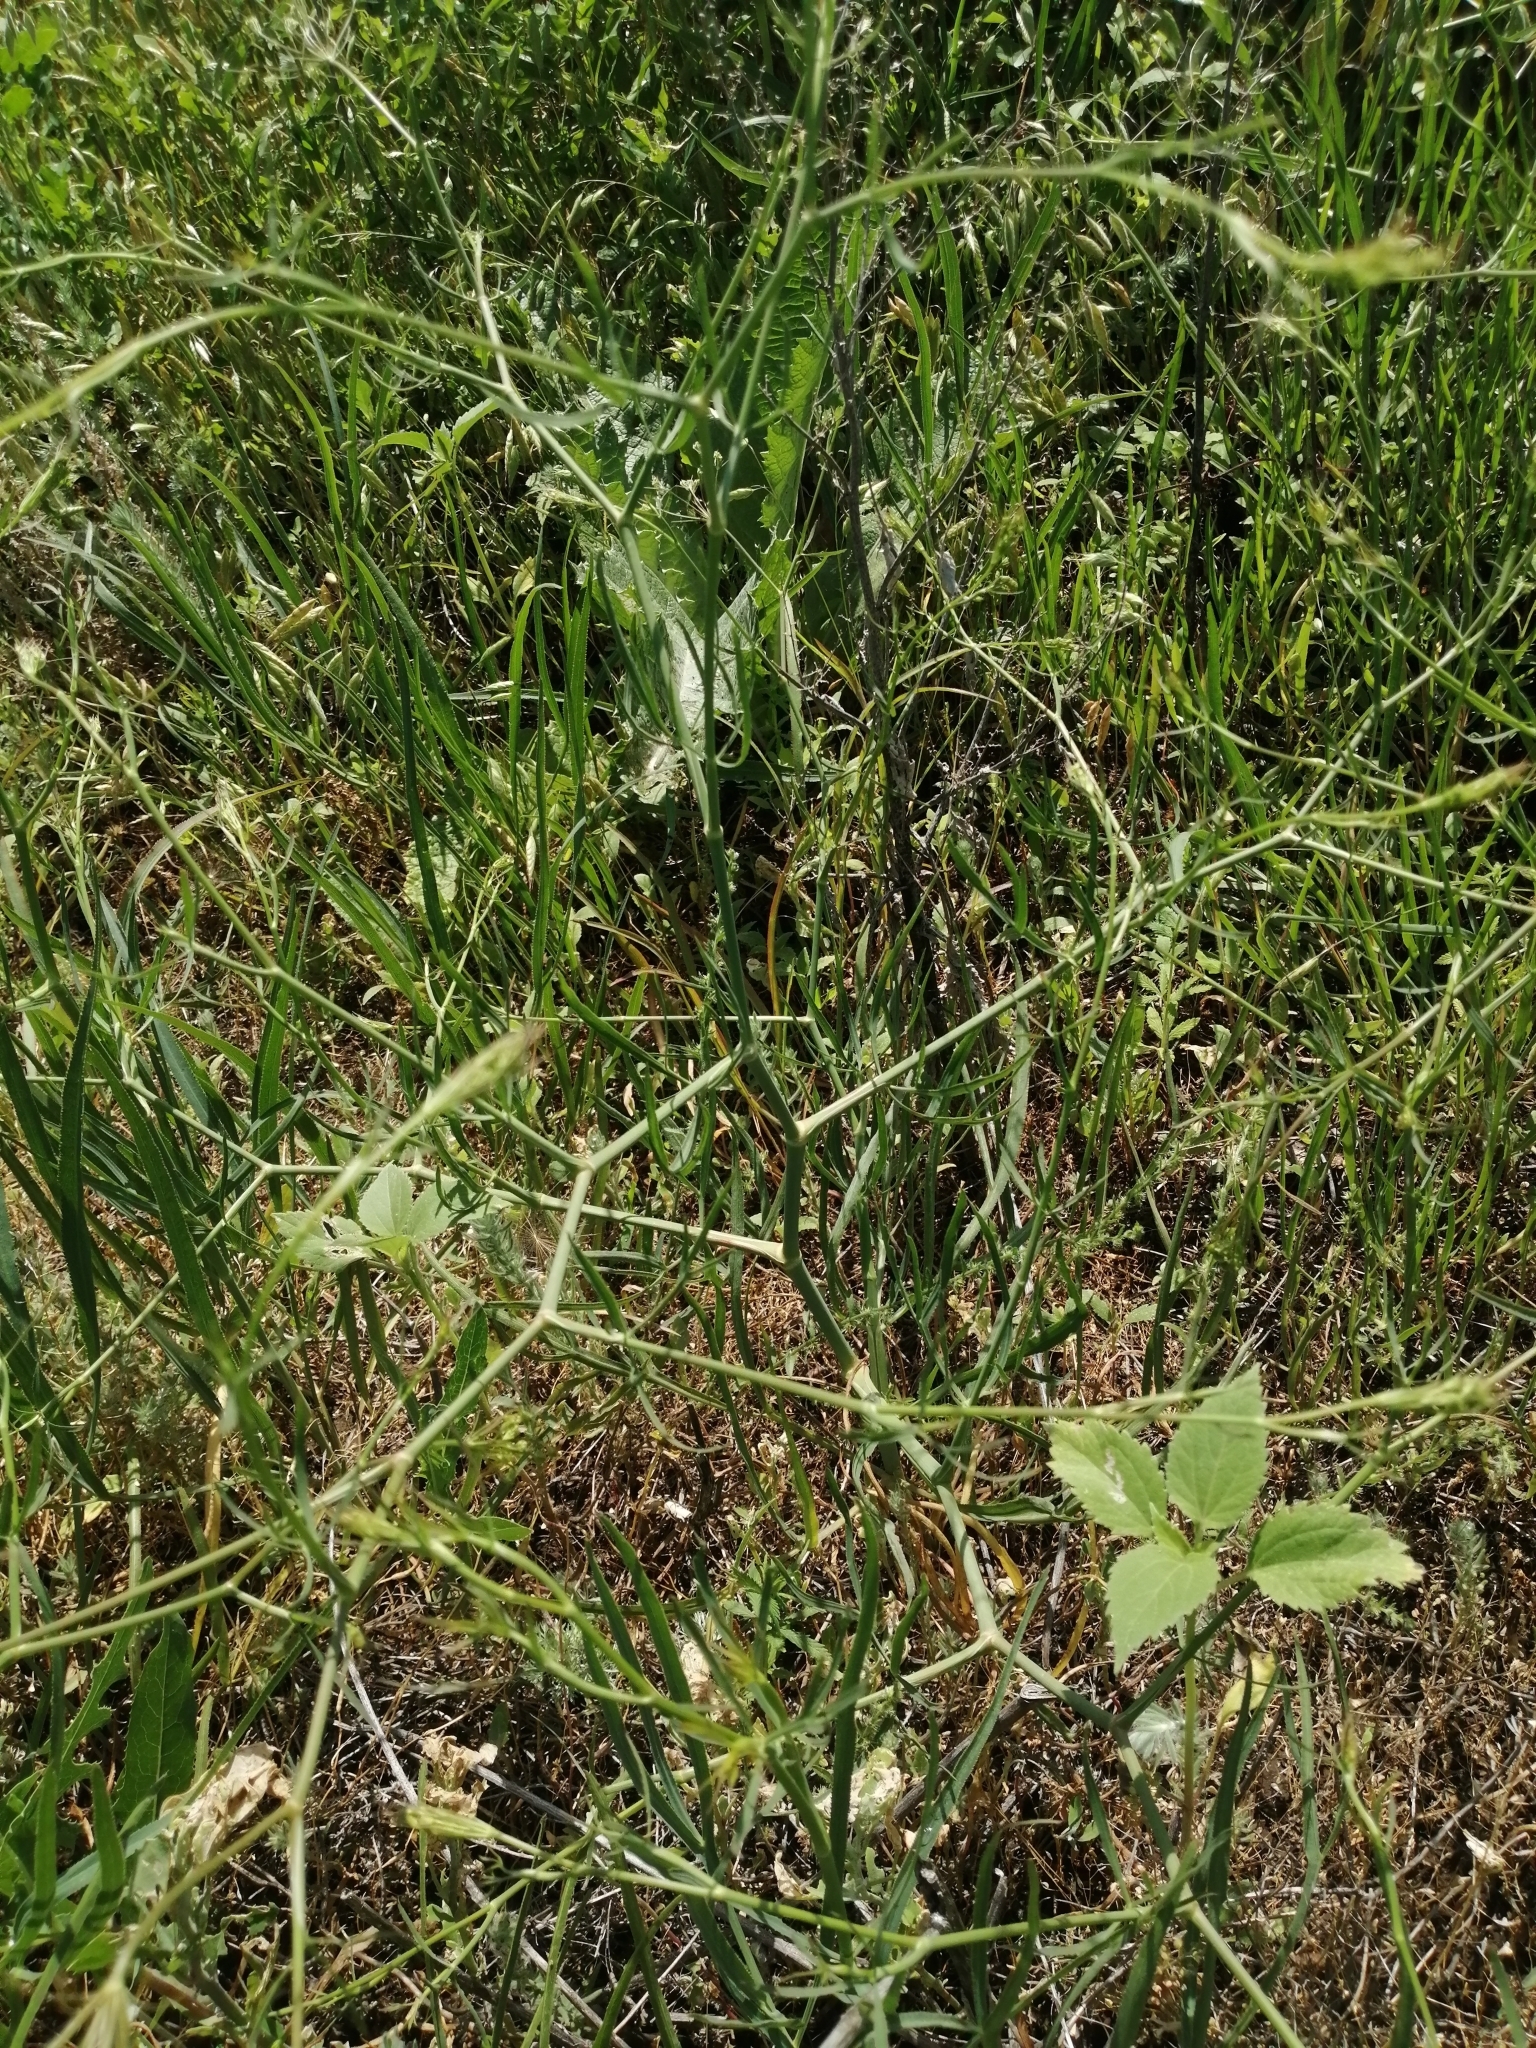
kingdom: Plantae
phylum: Tracheophyta
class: Magnoliopsida
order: Apiales
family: Apiaceae
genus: Falcaria
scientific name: Falcaria vulgaris
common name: Longleaf
